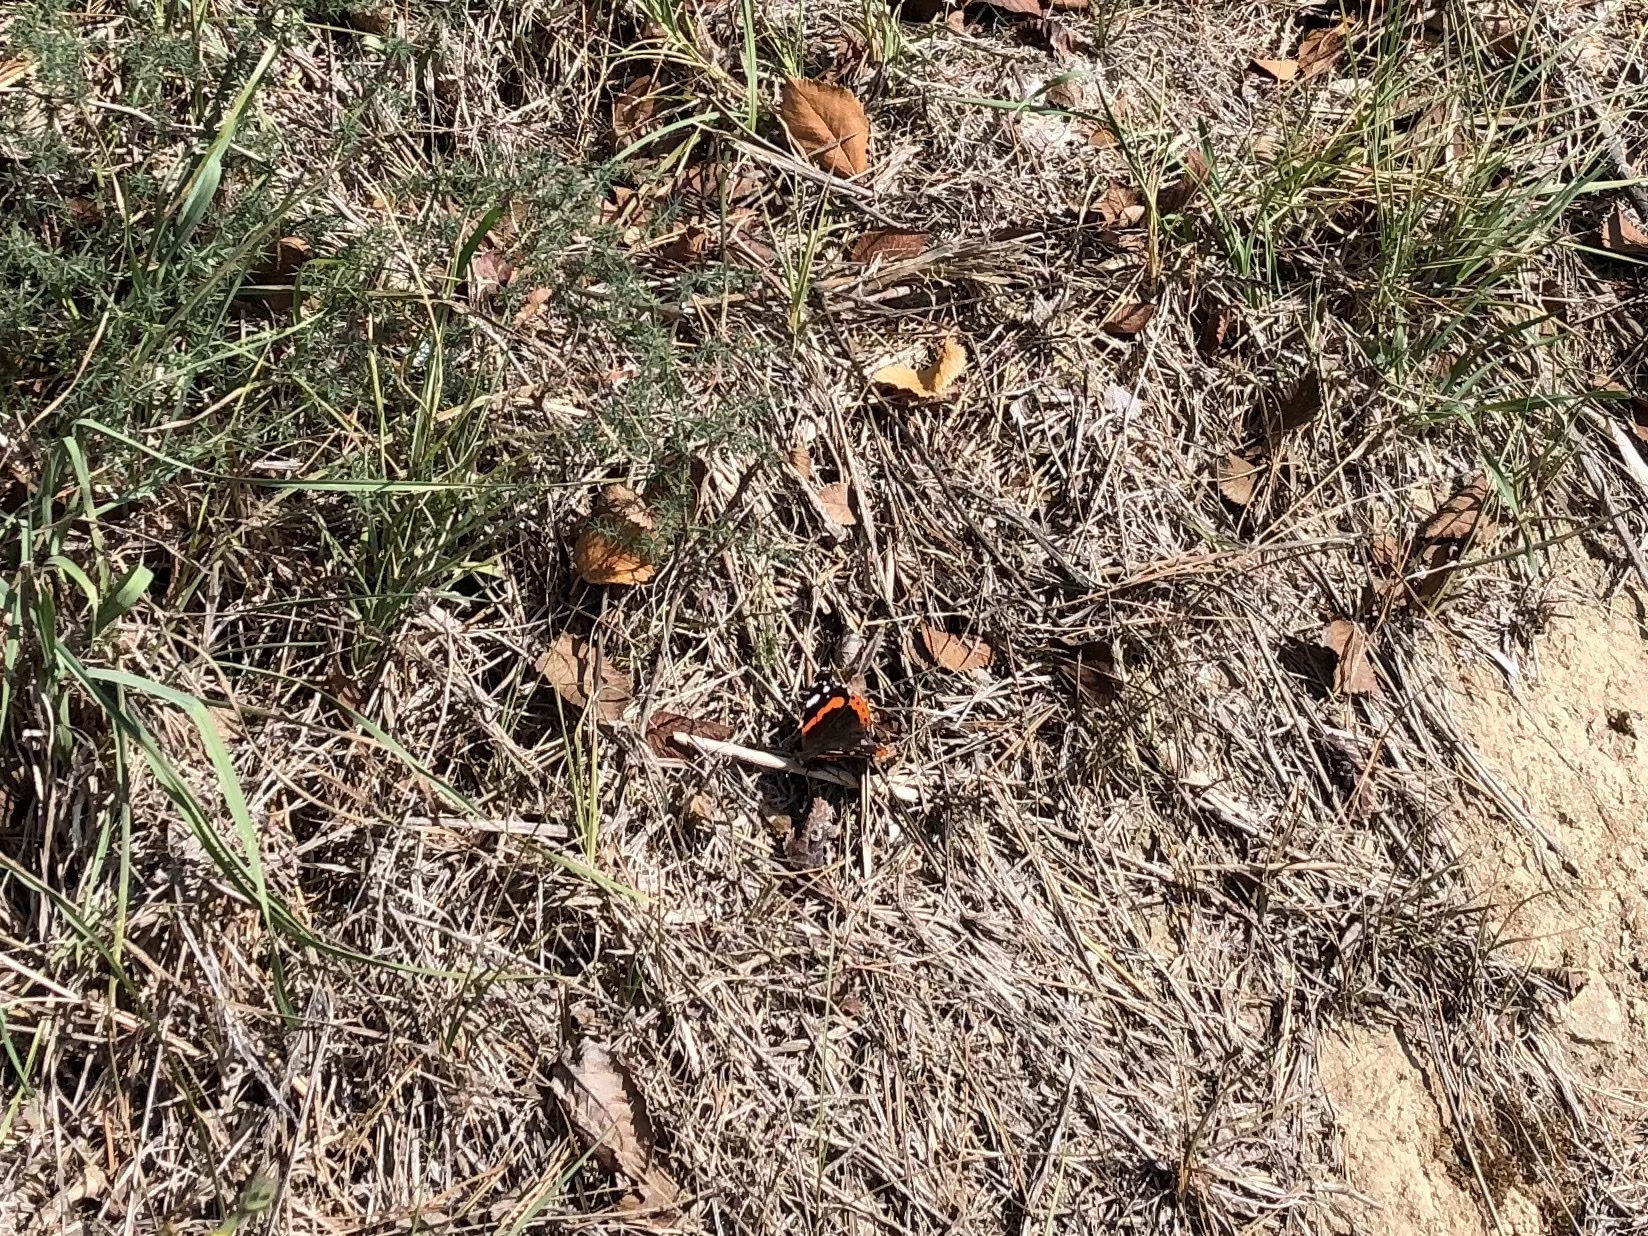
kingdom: Animalia
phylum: Arthropoda
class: Insecta
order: Lepidoptera
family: Nymphalidae
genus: Vanessa
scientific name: Vanessa atalanta
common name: Red admiral
